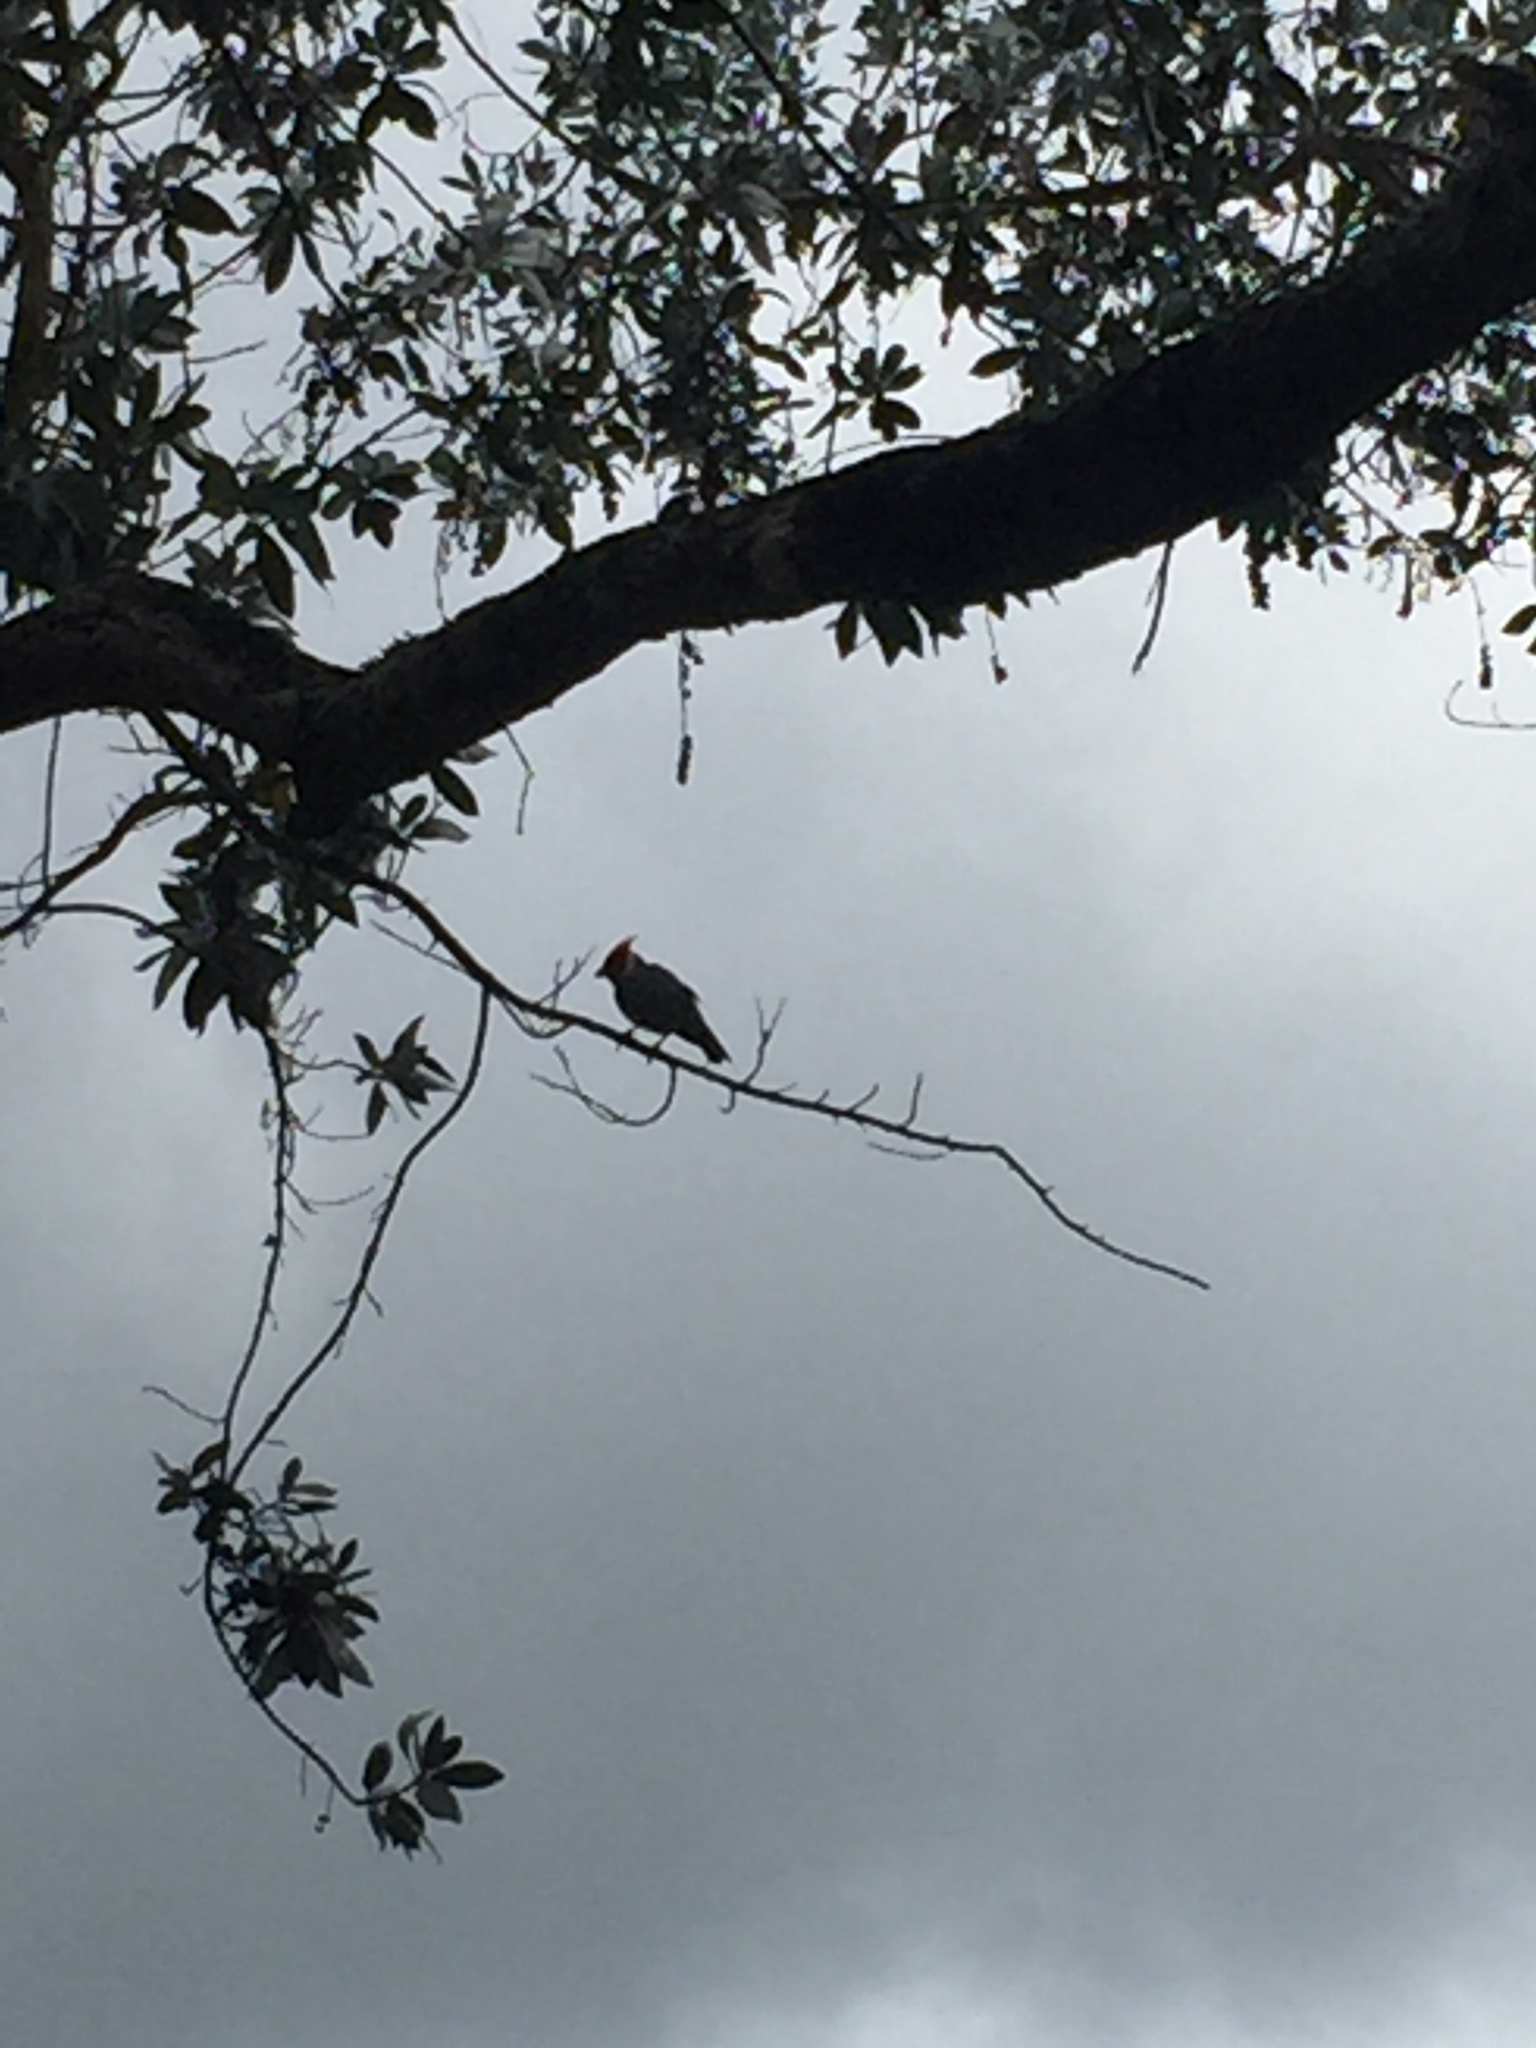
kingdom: Animalia
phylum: Chordata
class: Aves
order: Passeriformes
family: Thraupidae
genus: Paroaria
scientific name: Paroaria coronata
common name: Red-crested cardinal
